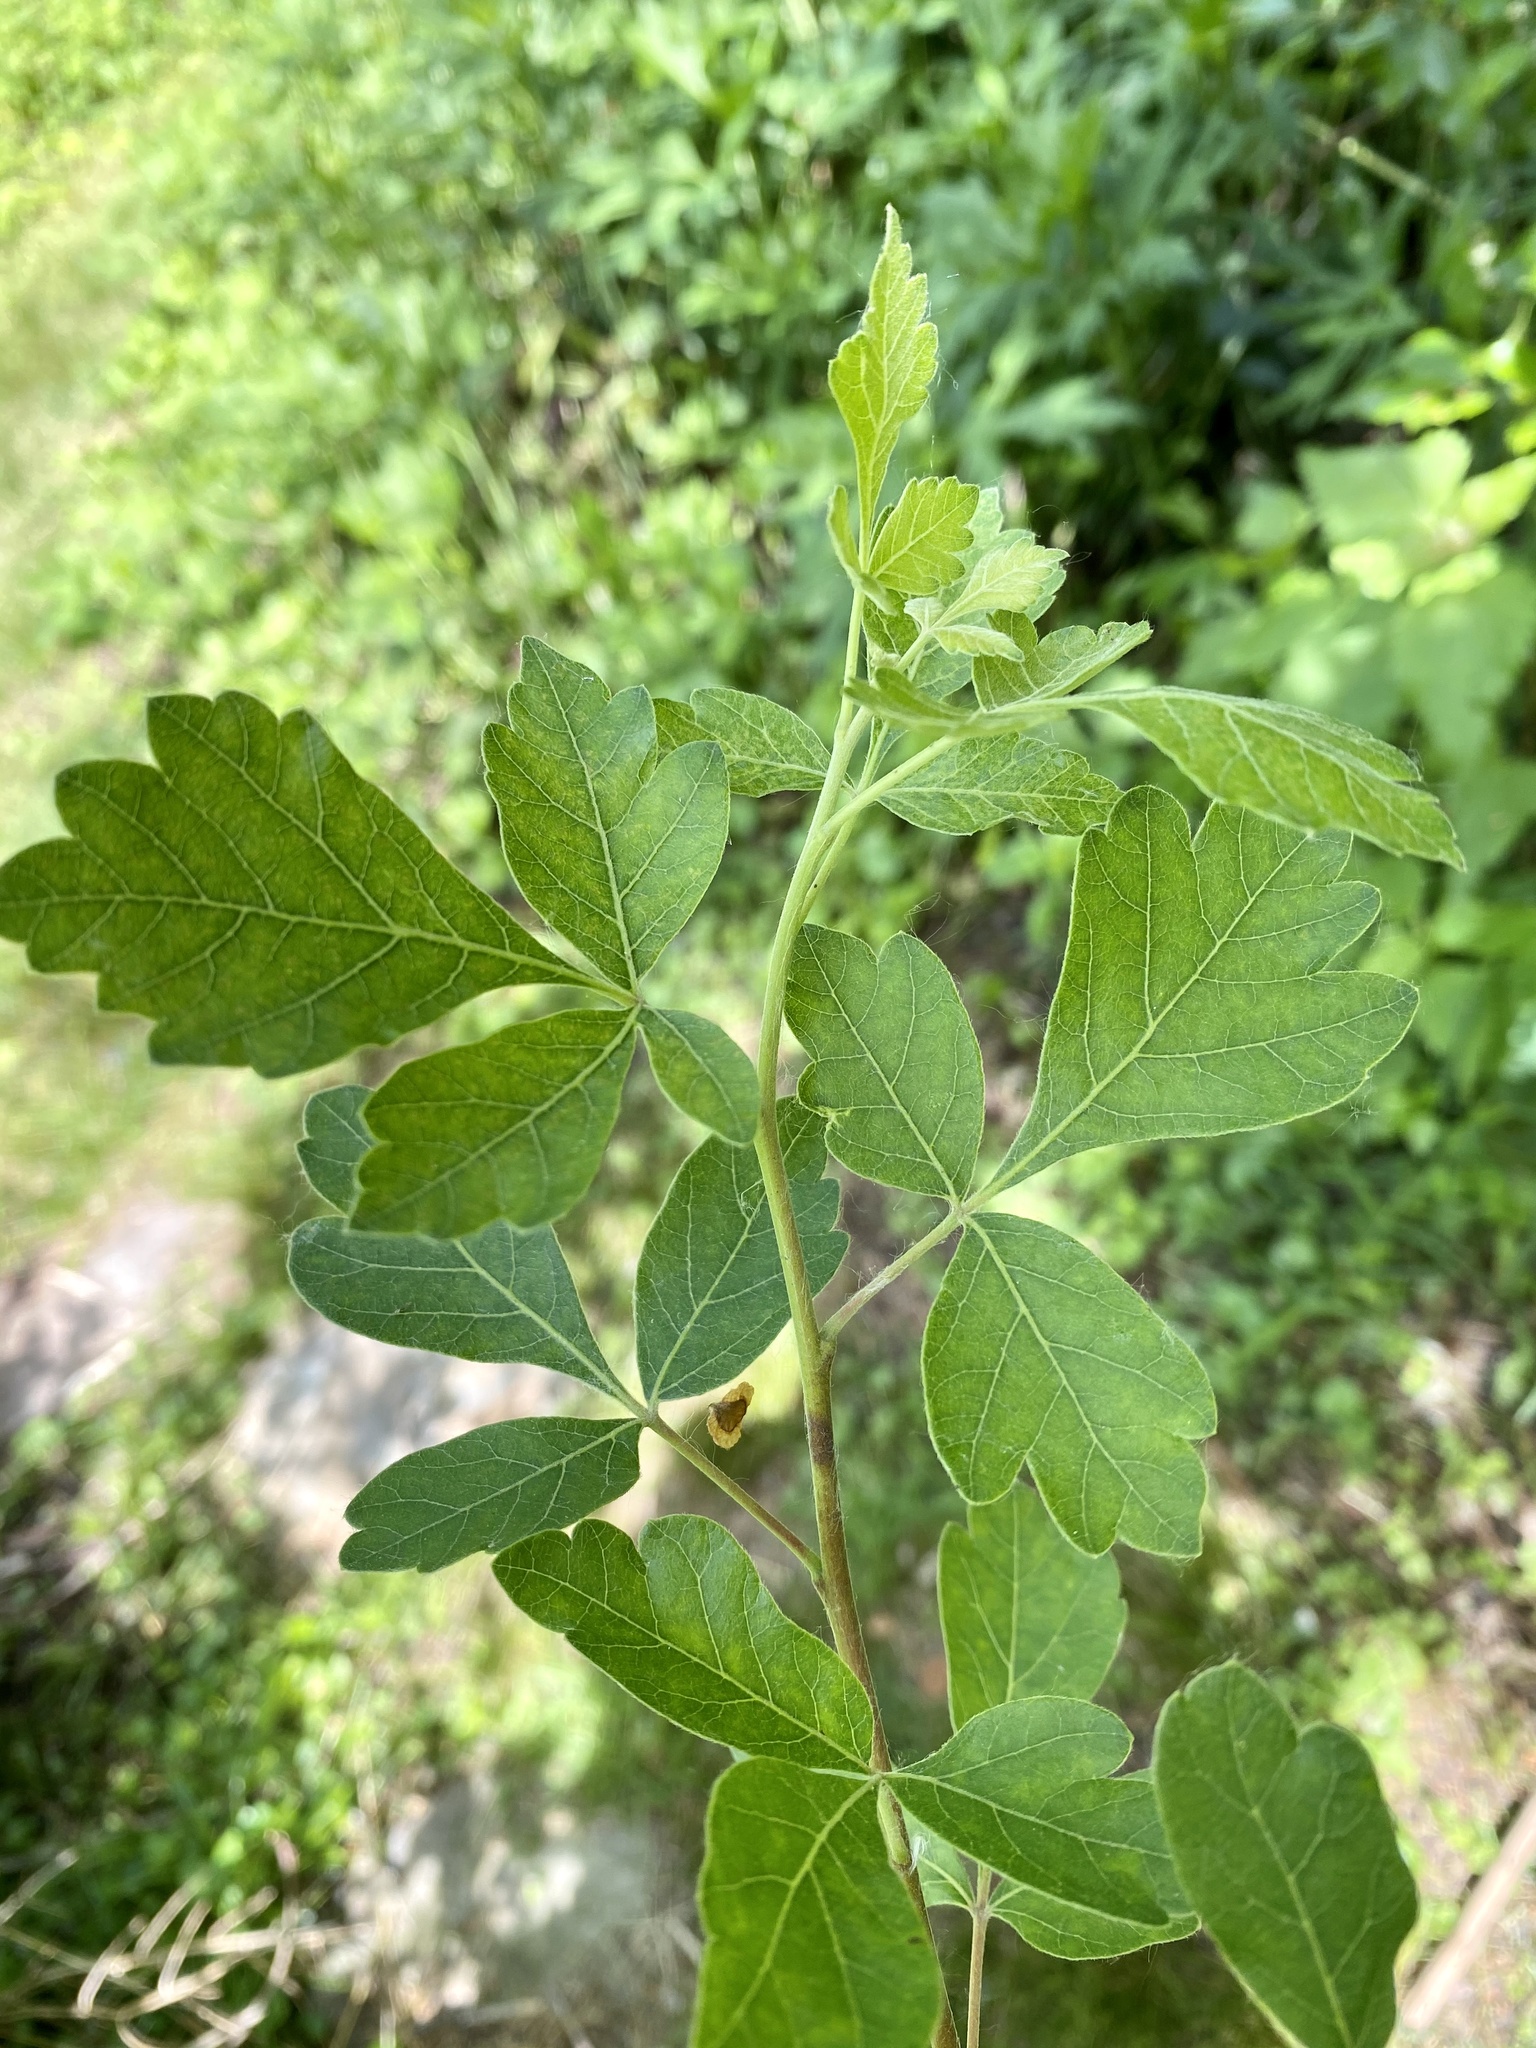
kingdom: Plantae
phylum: Tracheophyta
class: Magnoliopsida
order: Sapindales
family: Anacardiaceae
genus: Rhus
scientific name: Rhus aromatica
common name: Aromatic sumac
